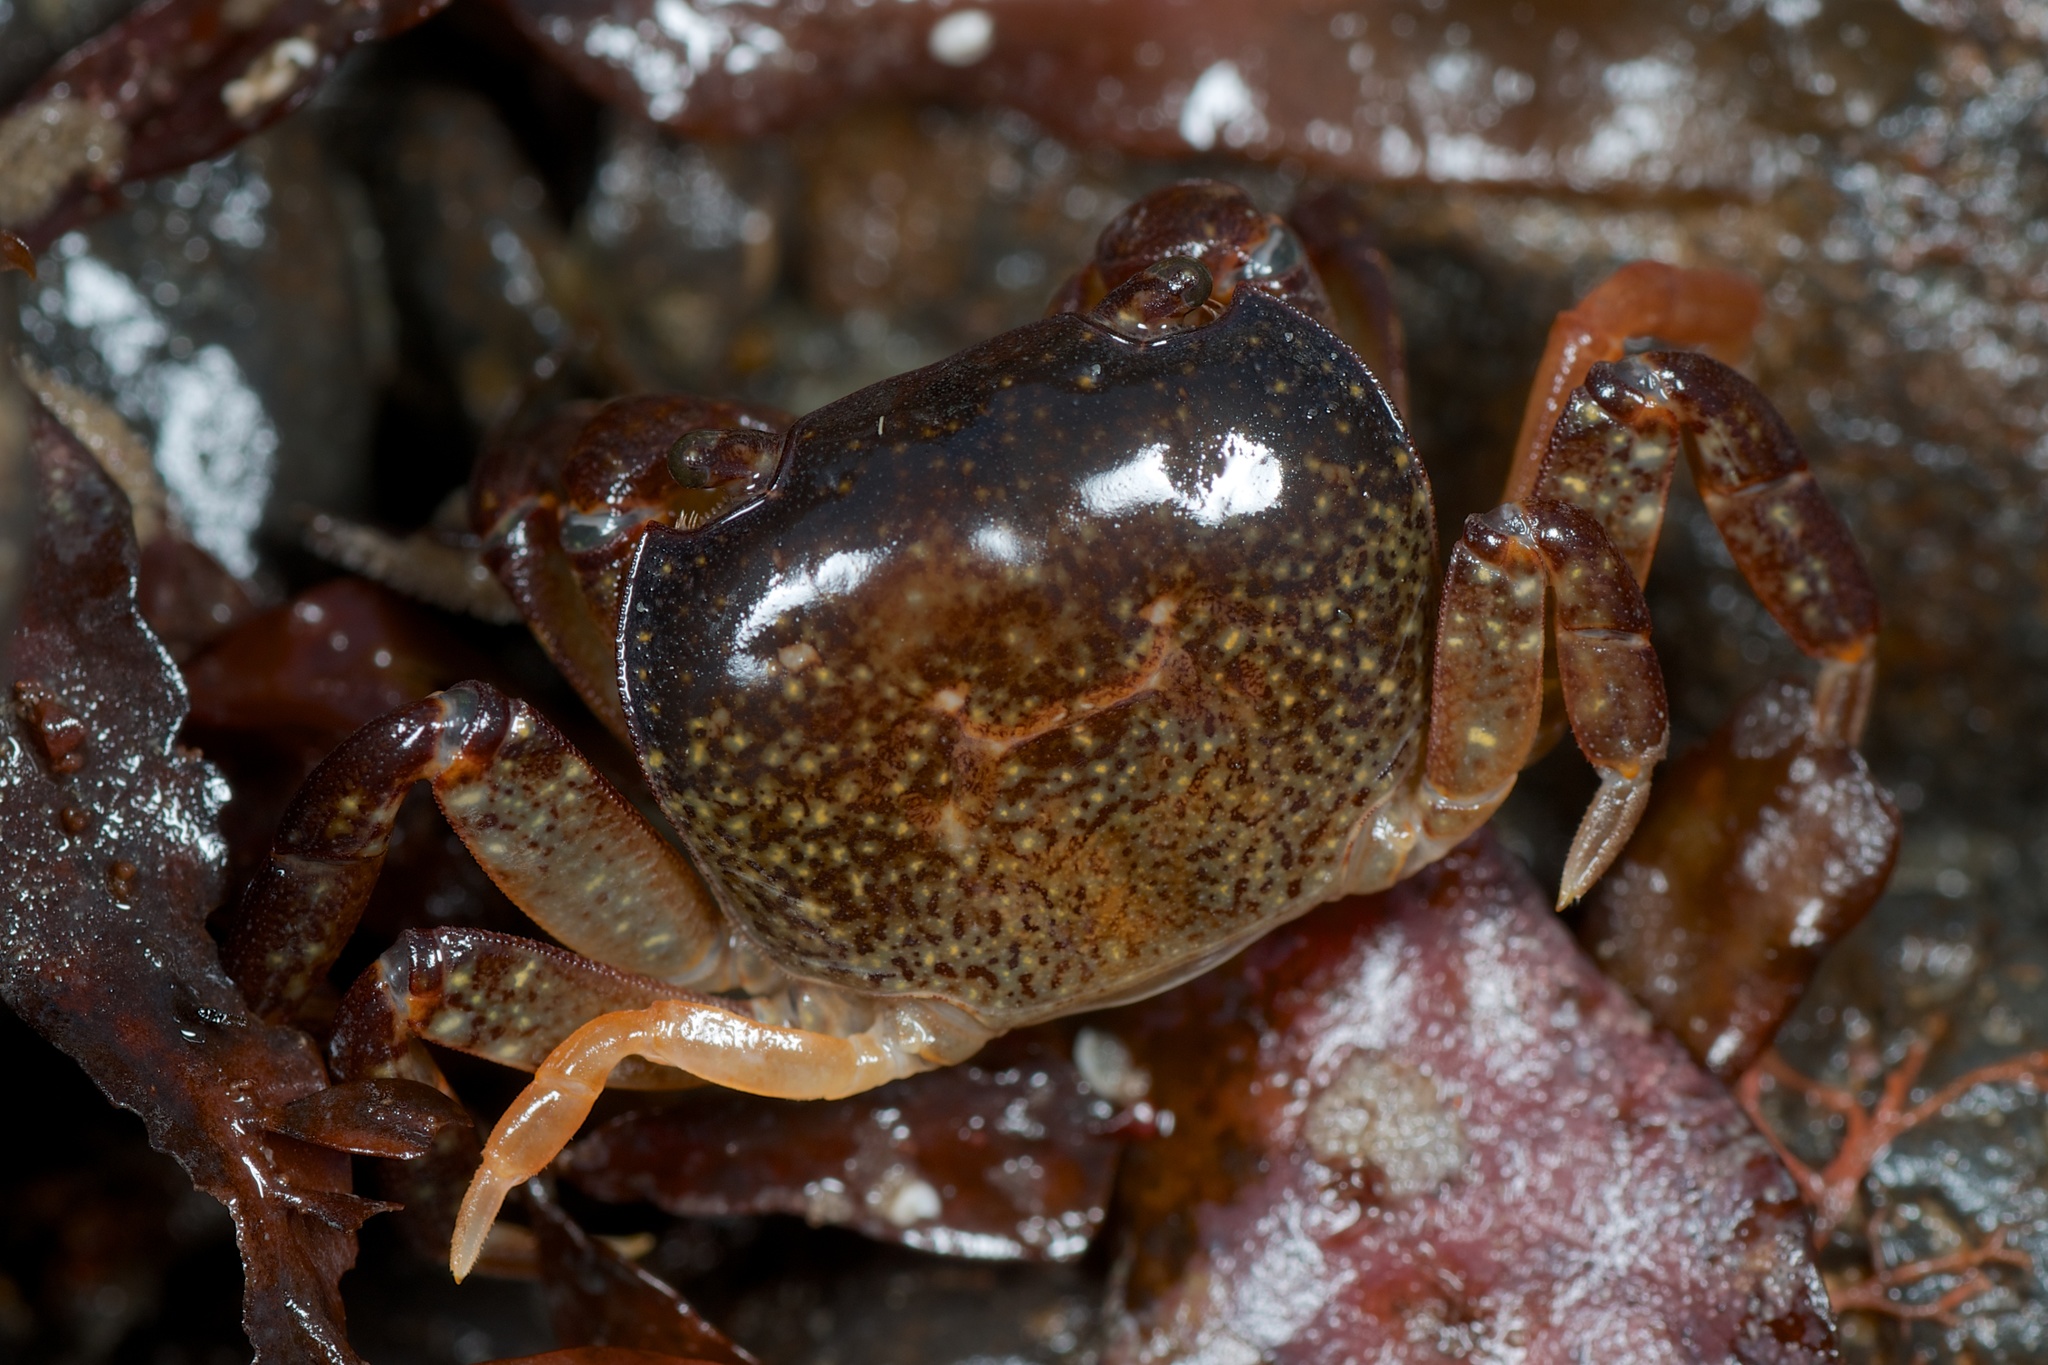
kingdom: Animalia
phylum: Arthropoda
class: Malacostraca
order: Decapoda
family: Varunidae
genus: Cyclograpsus
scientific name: Cyclograpsus lavauxi
